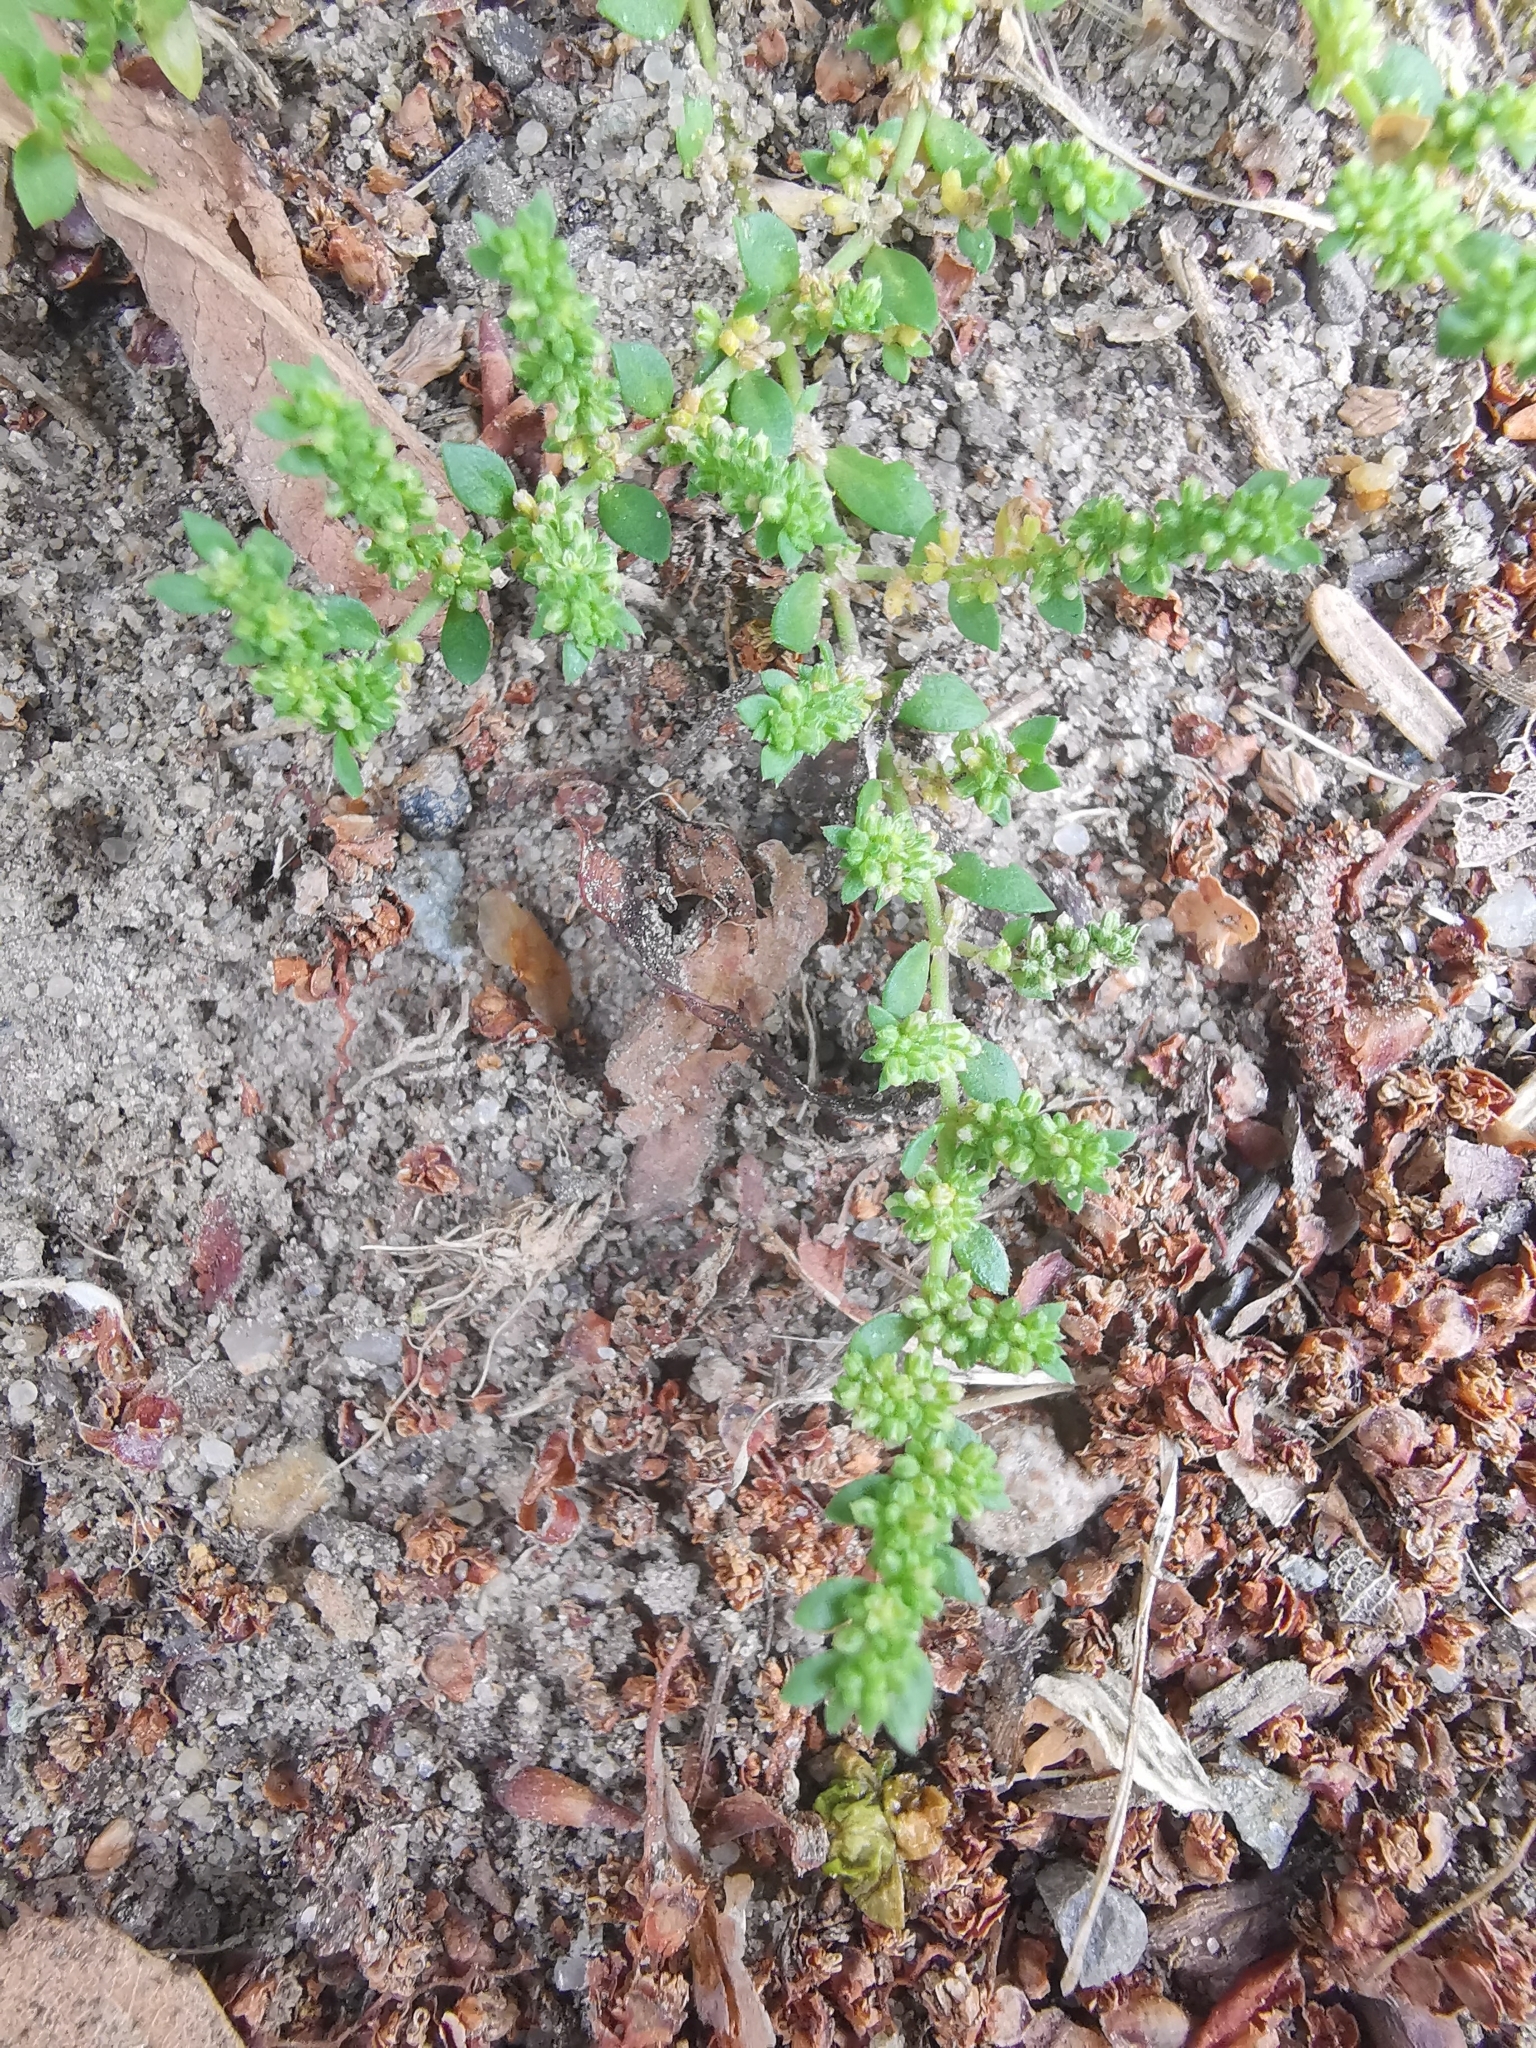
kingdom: Plantae
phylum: Tracheophyta
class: Magnoliopsida
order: Caryophyllales
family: Caryophyllaceae
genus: Herniaria
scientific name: Herniaria glabra
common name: Smooth rupturewort
